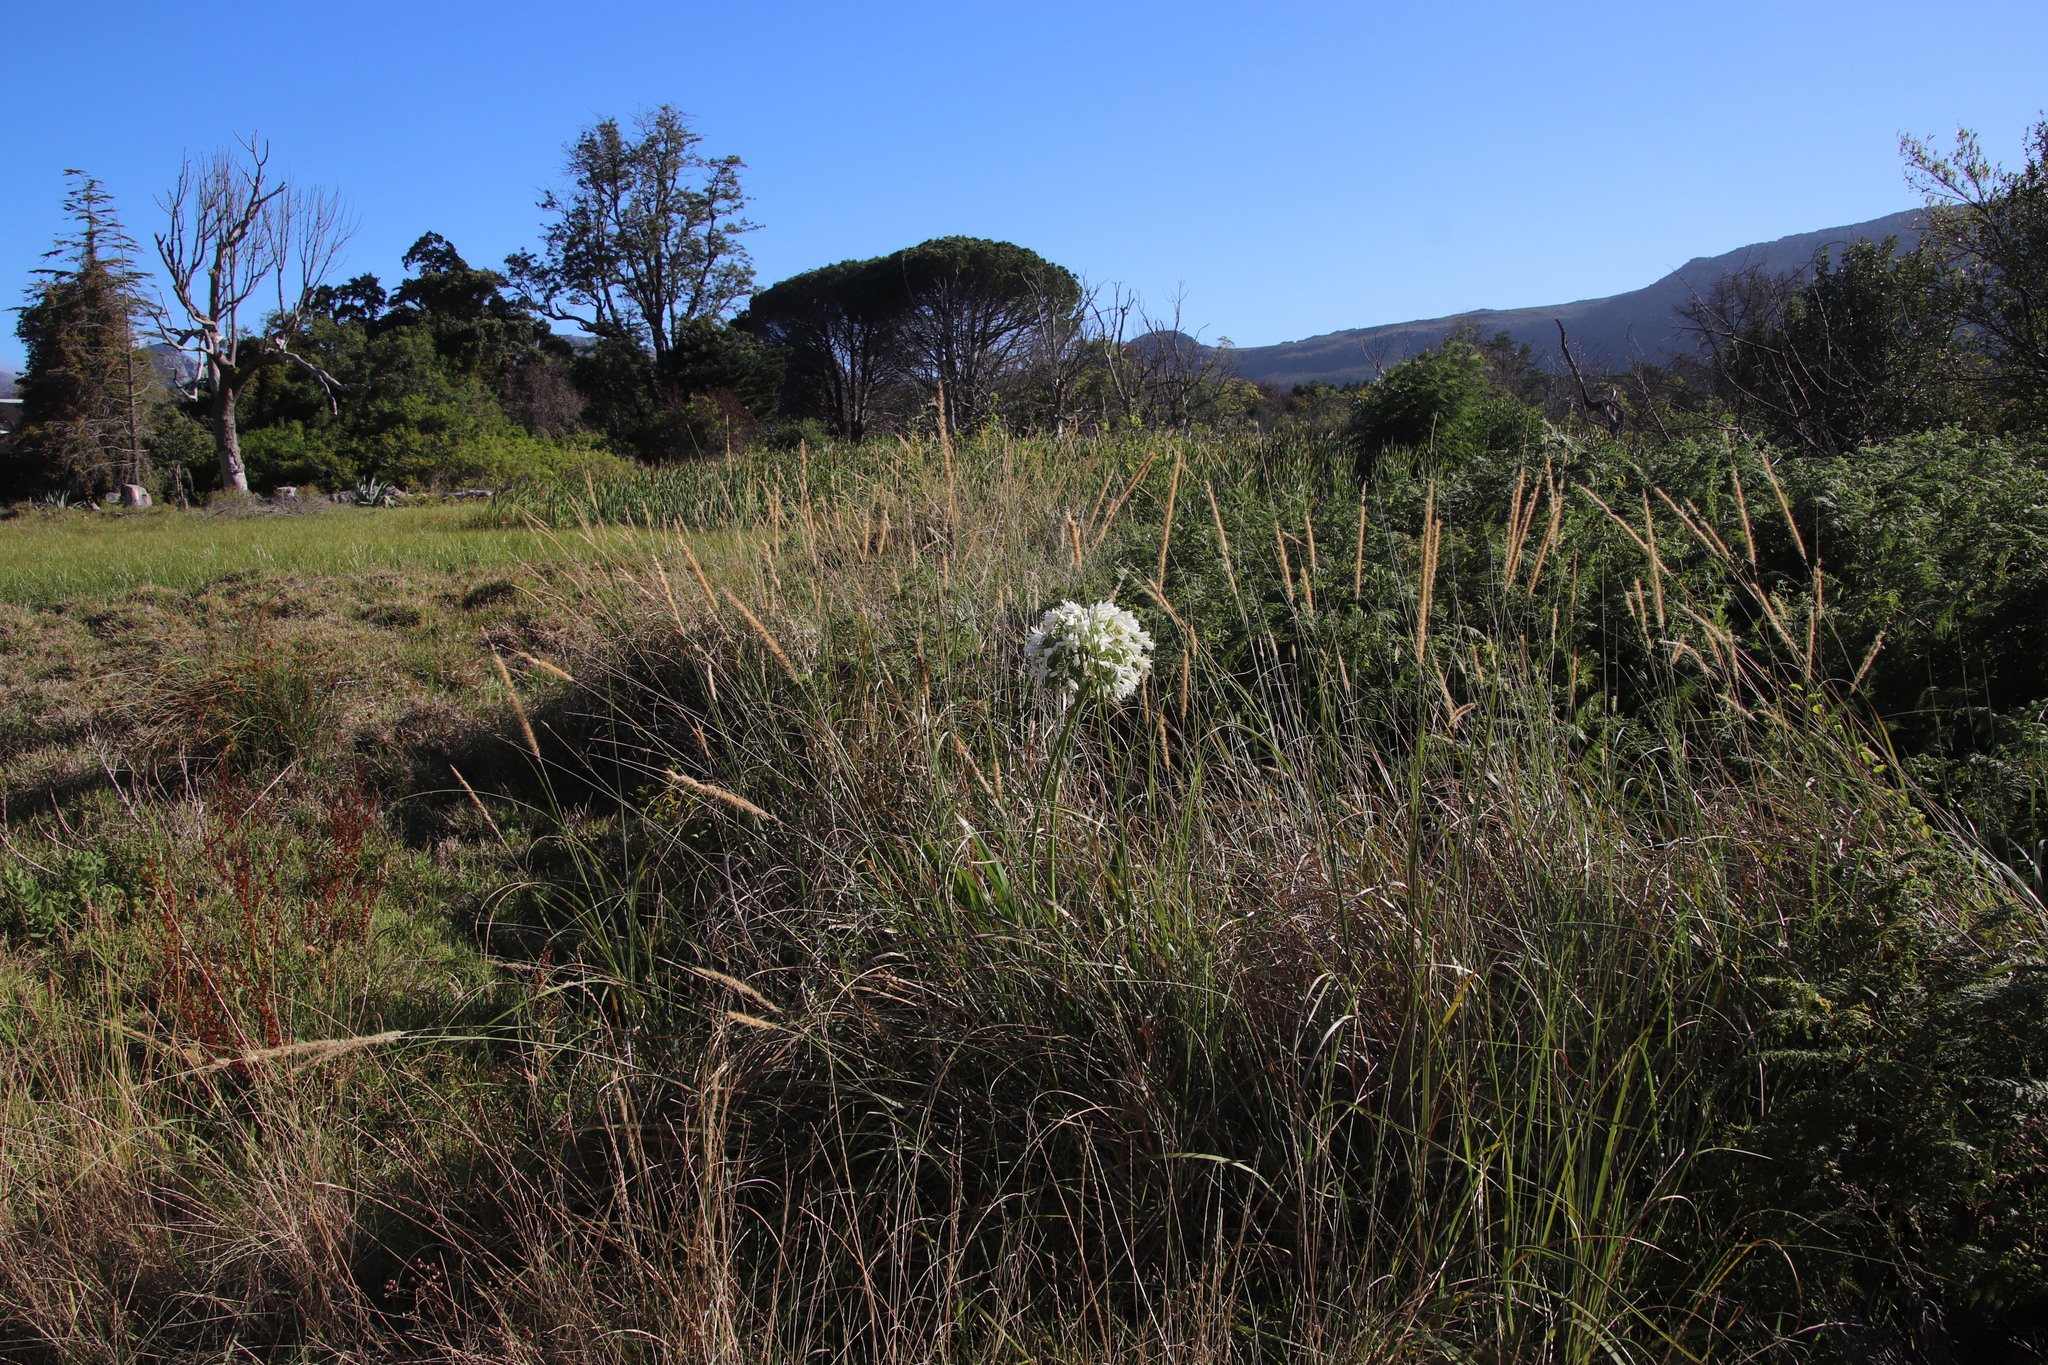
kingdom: Plantae
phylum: Tracheophyta
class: Liliopsida
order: Poales
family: Poaceae
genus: Cenchrus
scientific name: Cenchrus caudatus
